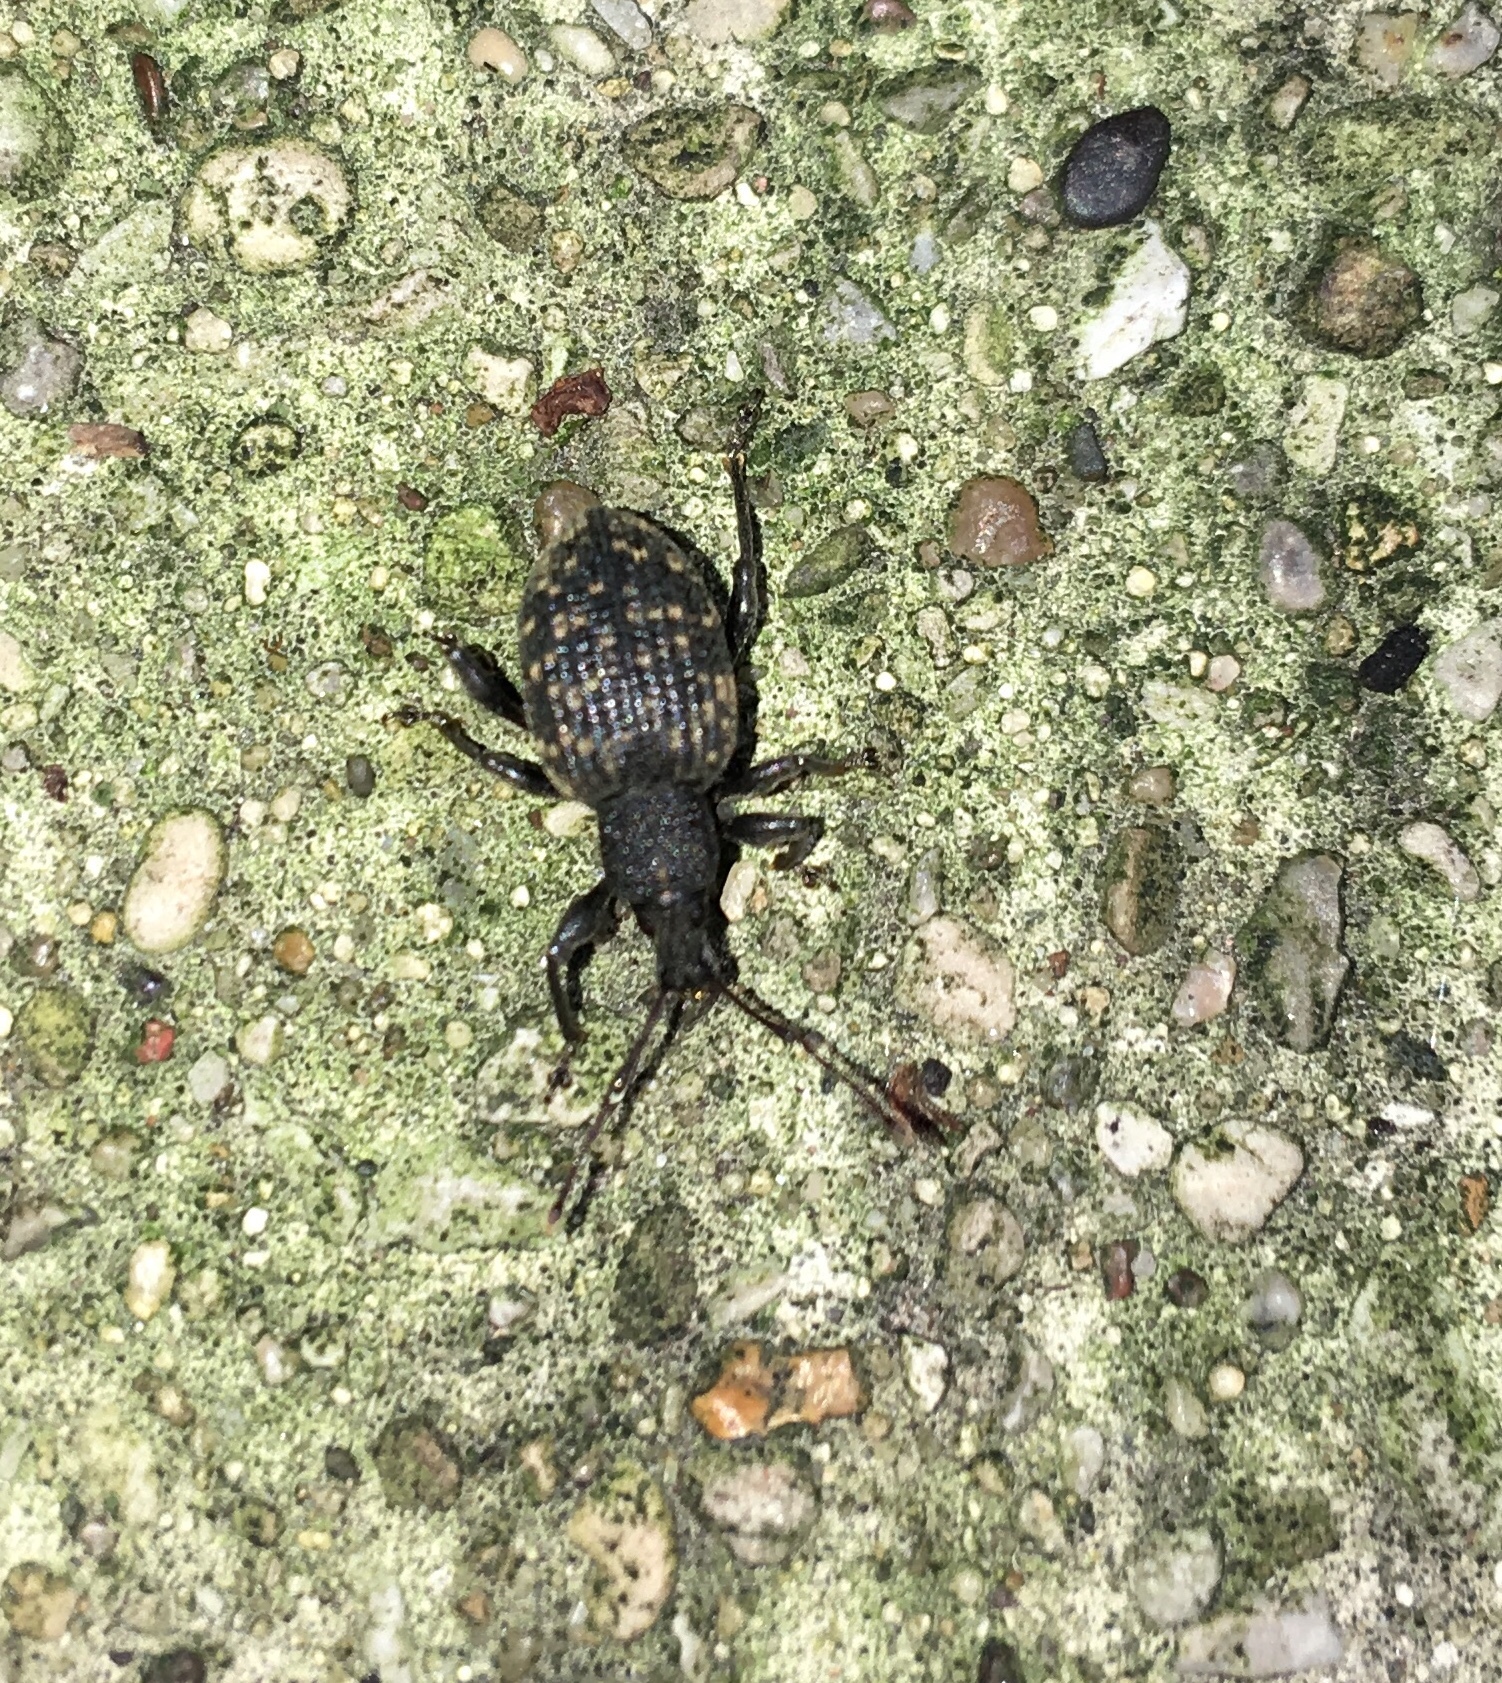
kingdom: Animalia
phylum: Arthropoda
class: Insecta
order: Coleoptera
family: Curculionidae
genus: Otiorhynchus
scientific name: Otiorhynchus sulcatus
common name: Black vine weevil
